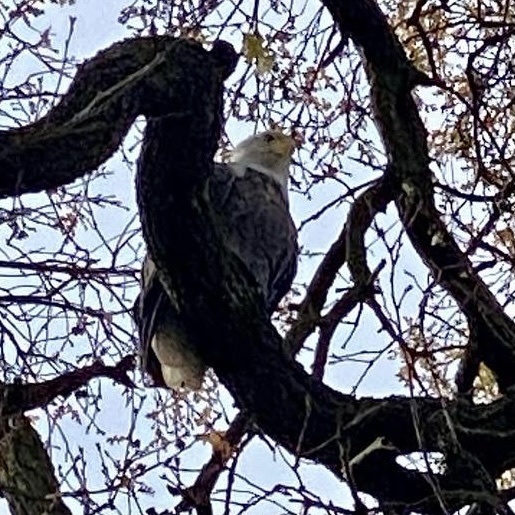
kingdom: Animalia
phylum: Chordata
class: Aves
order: Accipitriformes
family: Accipitridae
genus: Haliaeetus
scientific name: Haliaeetus leucocephalus
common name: Bald eagle
